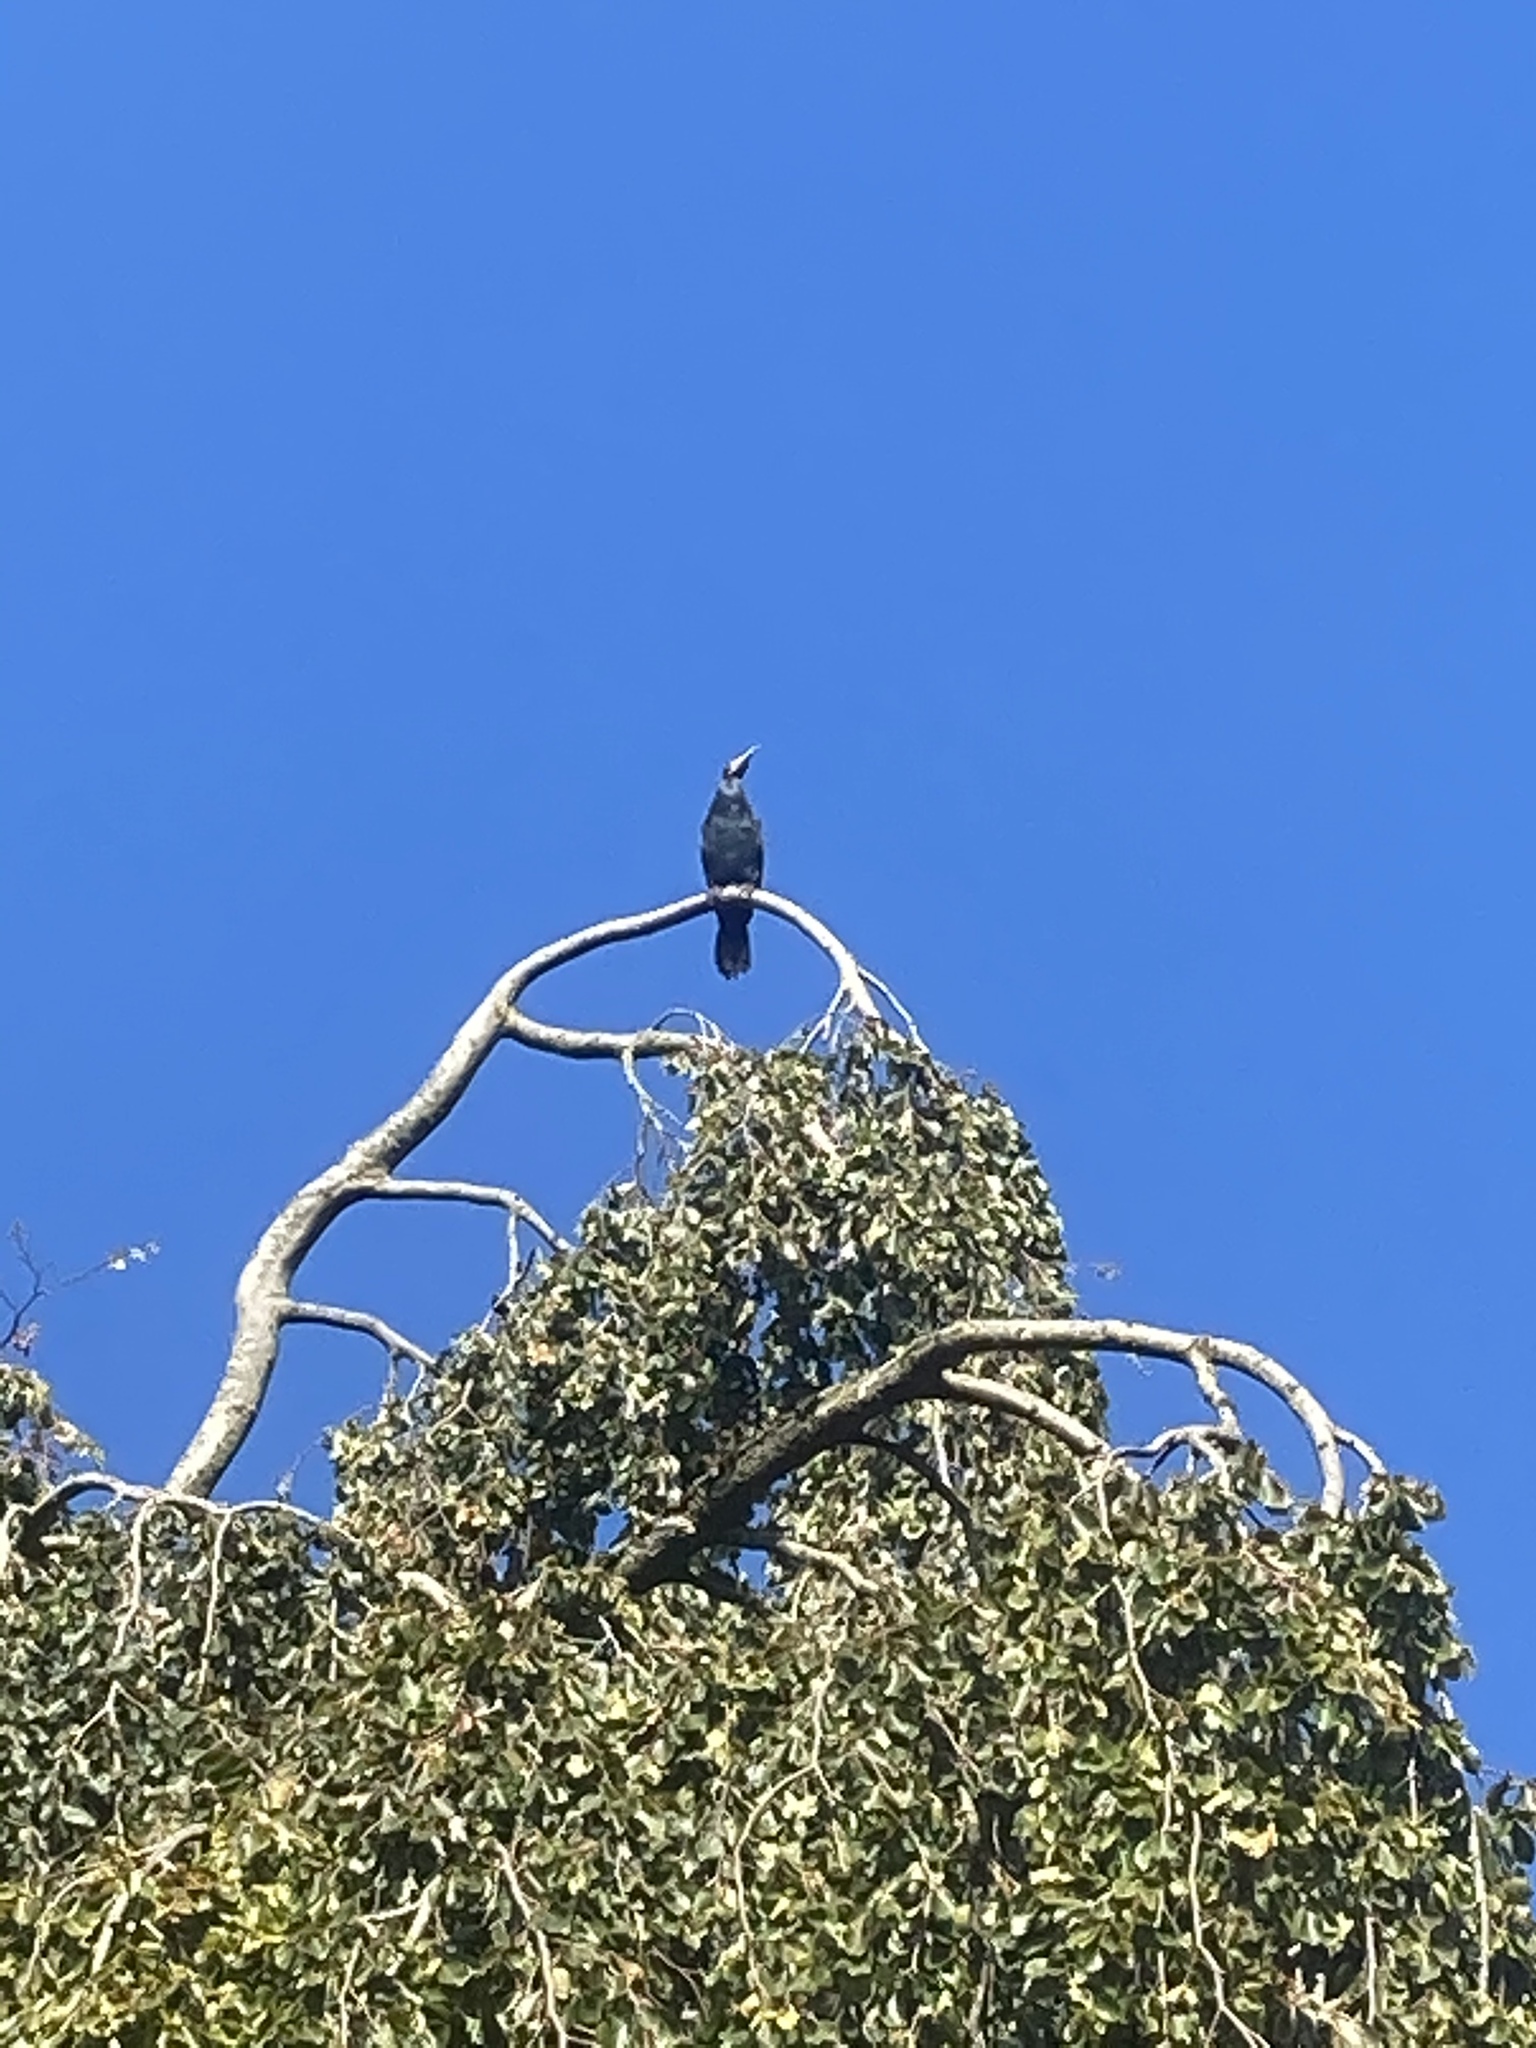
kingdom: Animalia
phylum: Chordata
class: Aves
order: Suliformes
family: Phalacrocoracidae
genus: Phalacrocorax
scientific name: Phalacrocorax carbo
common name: Great cormorant
